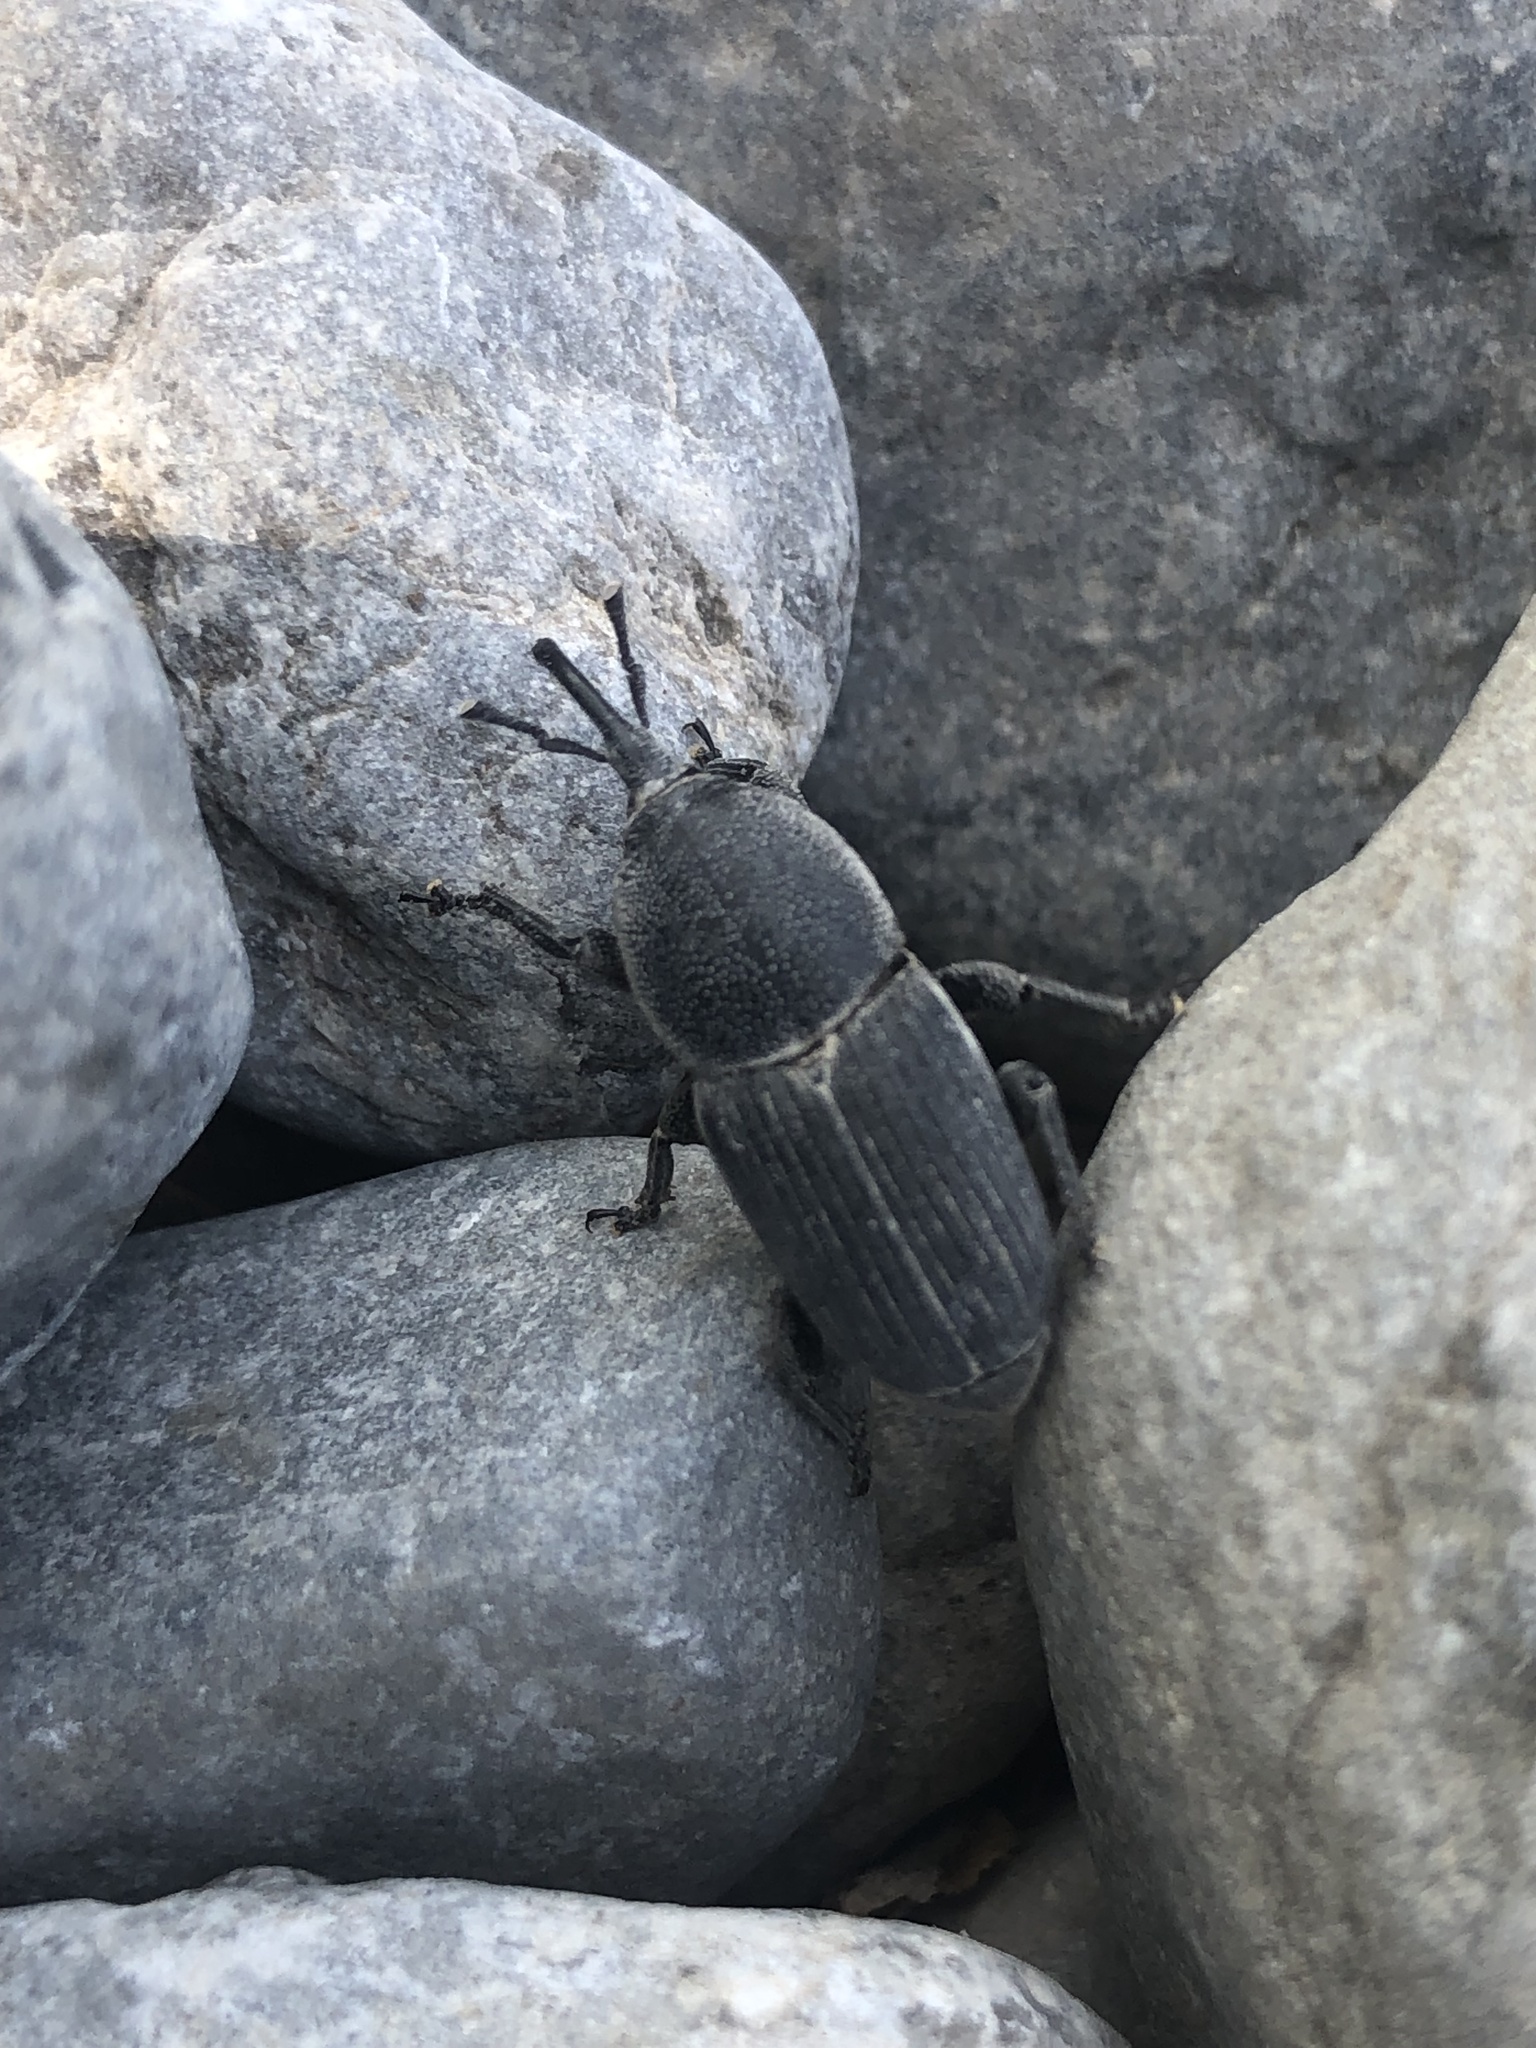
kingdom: Animalia
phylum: Arthropoda
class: Insecta
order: Coleoptera
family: Dryophthoridae
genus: Scyphophorus
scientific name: Scyphophorus acupunctatus
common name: Weevil
